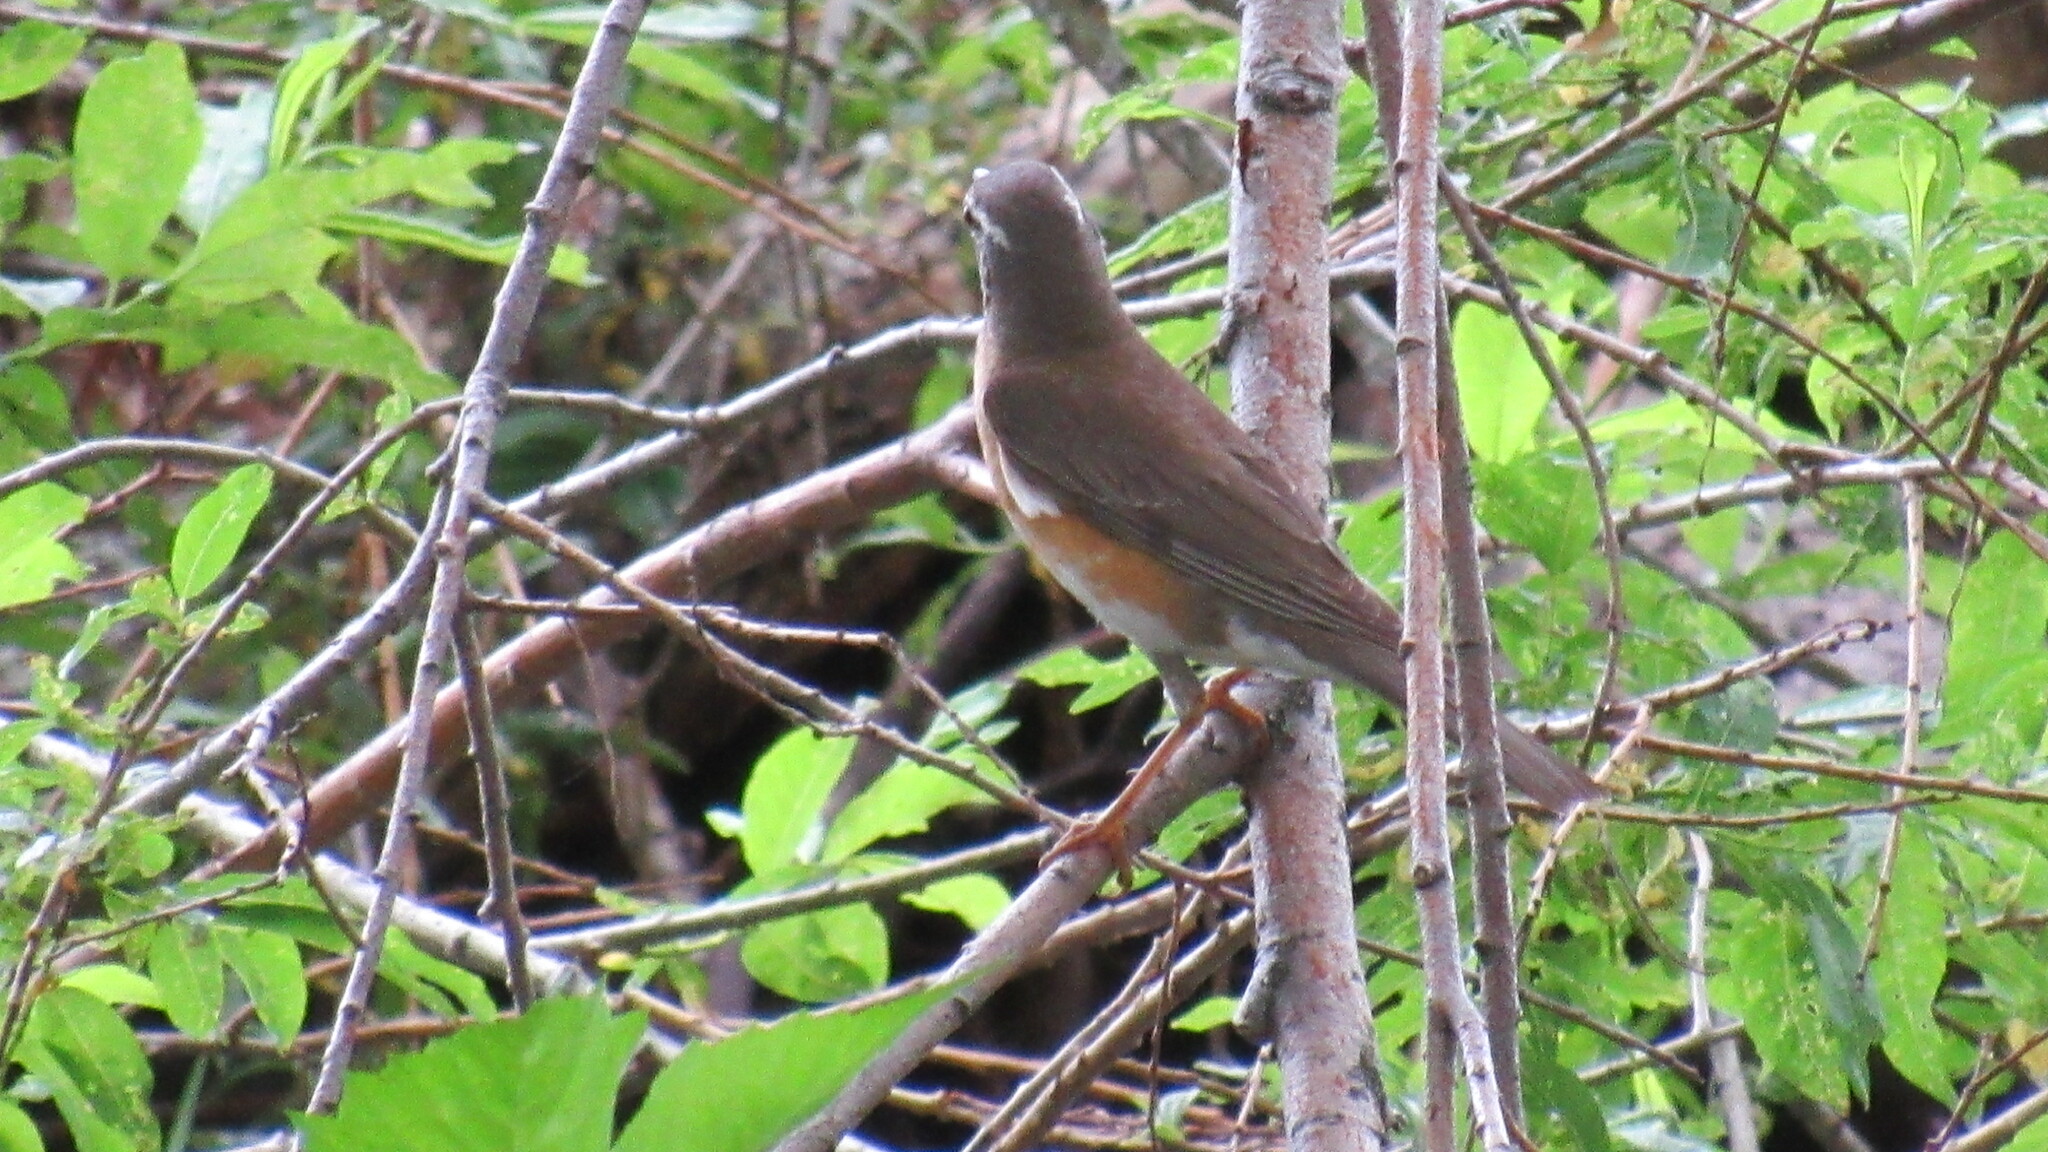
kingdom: Animalia
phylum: Chordata
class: Aves
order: Passeriformes
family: Turdidae
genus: Turdus
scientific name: Turdus obscurus
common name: Eyebrowed thrush
